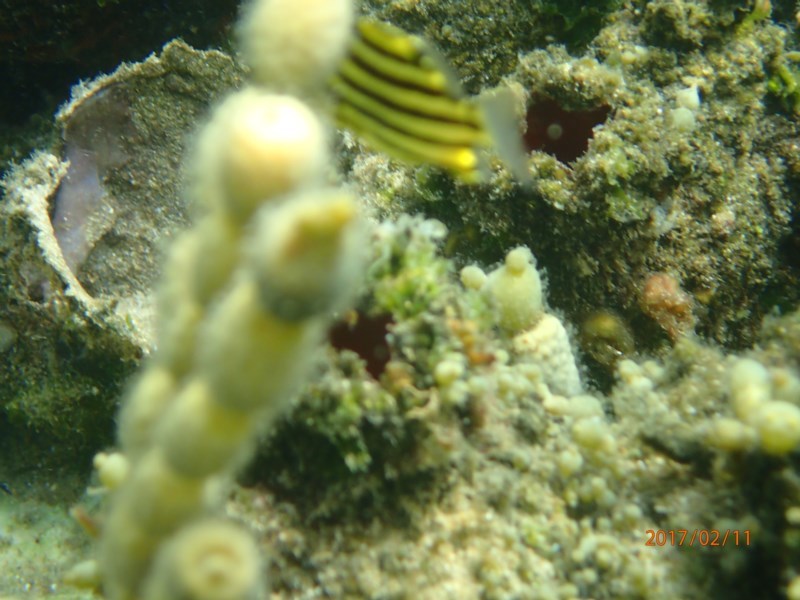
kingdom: Animalia
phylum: Chordata
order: Perciformes
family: Kyphosidae
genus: Microcanthus
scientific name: Microcanthus joyceae
